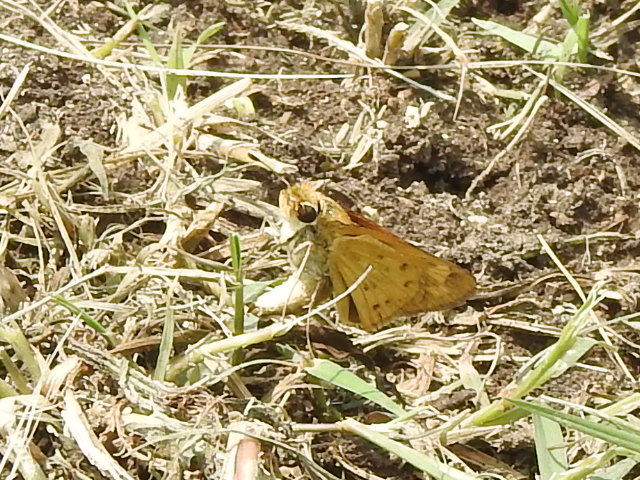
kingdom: Animalia
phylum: Arthropoda
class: Insecta
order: Lepidoptera
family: Hesperiidae
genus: Hylephila
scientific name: Hylephila phyleus
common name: Fiery skipper
